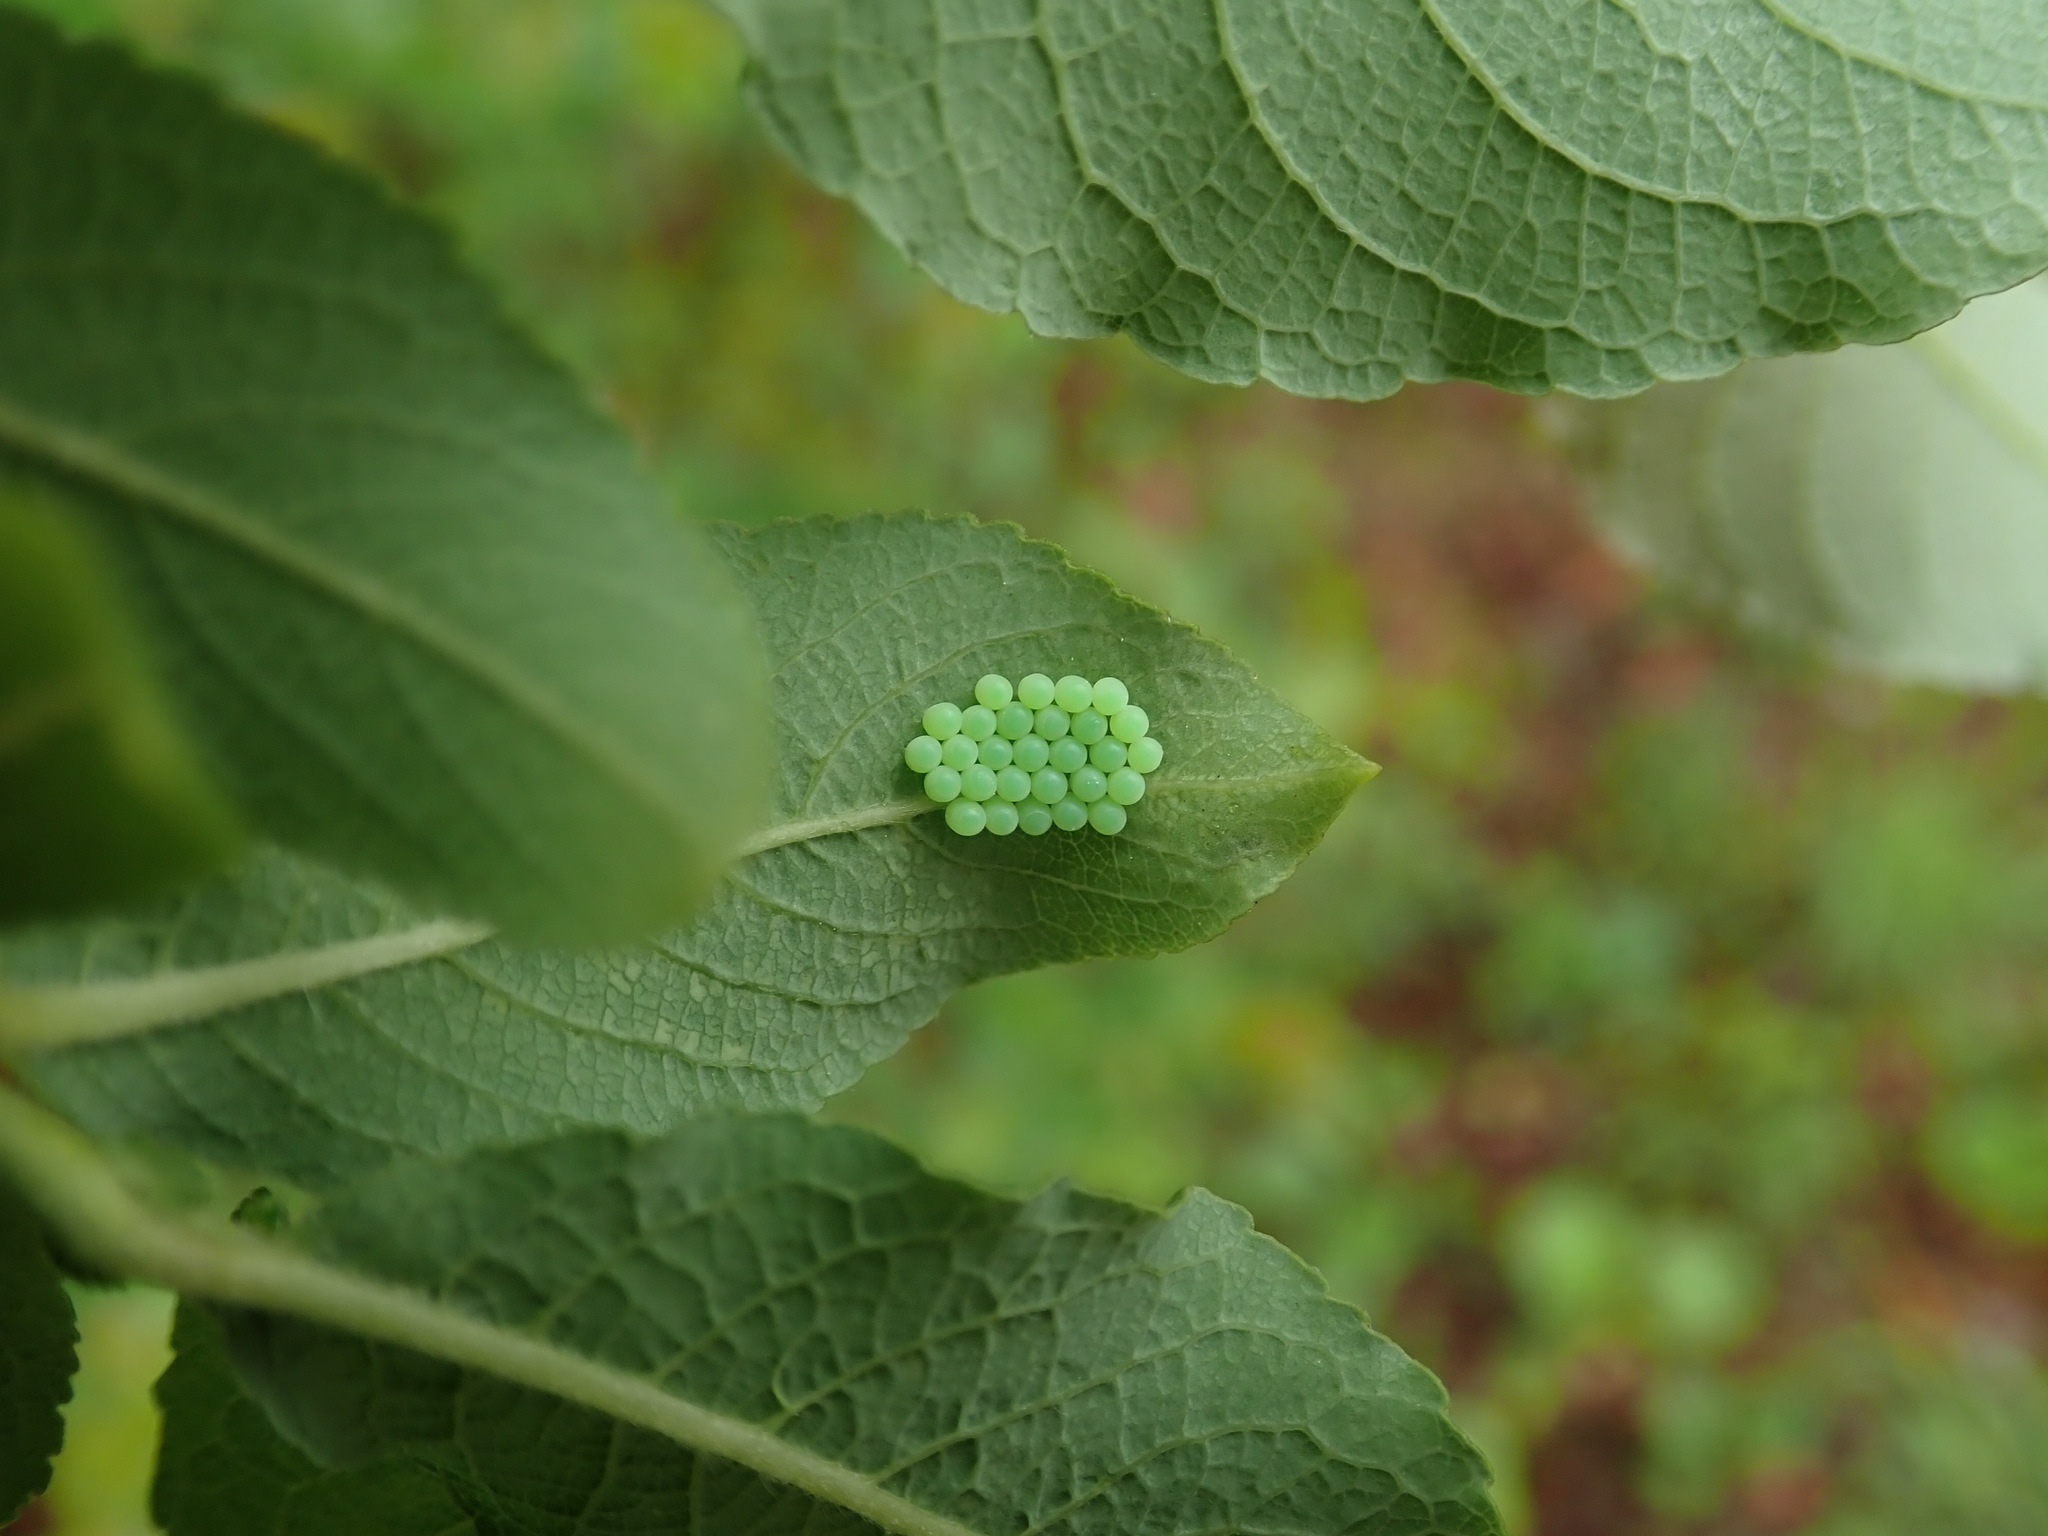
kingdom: Animalia
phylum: Arthropoda
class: Insecta
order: Hemiptera
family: Pentatomidae
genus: Palomena
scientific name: Palomena prasina
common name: Green shieldbug
